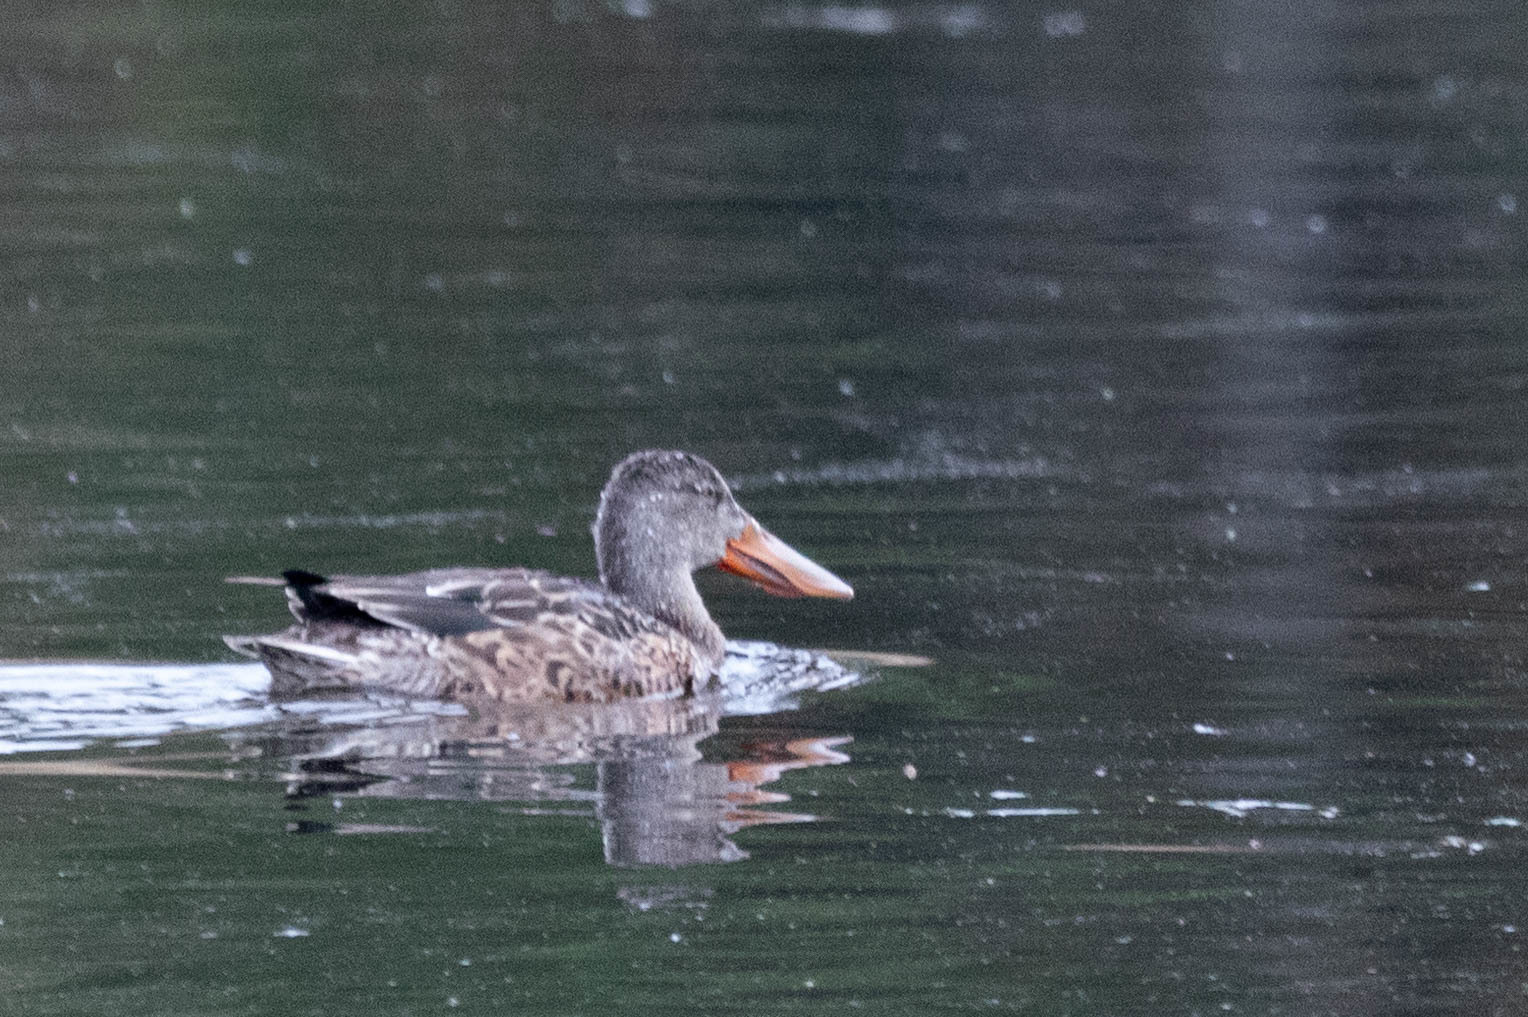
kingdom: Animalia
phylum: Chordata
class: Aves
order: Anseriformes
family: Anatidae
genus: Spatula
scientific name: Spatula clypeata
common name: Northern shoveler
